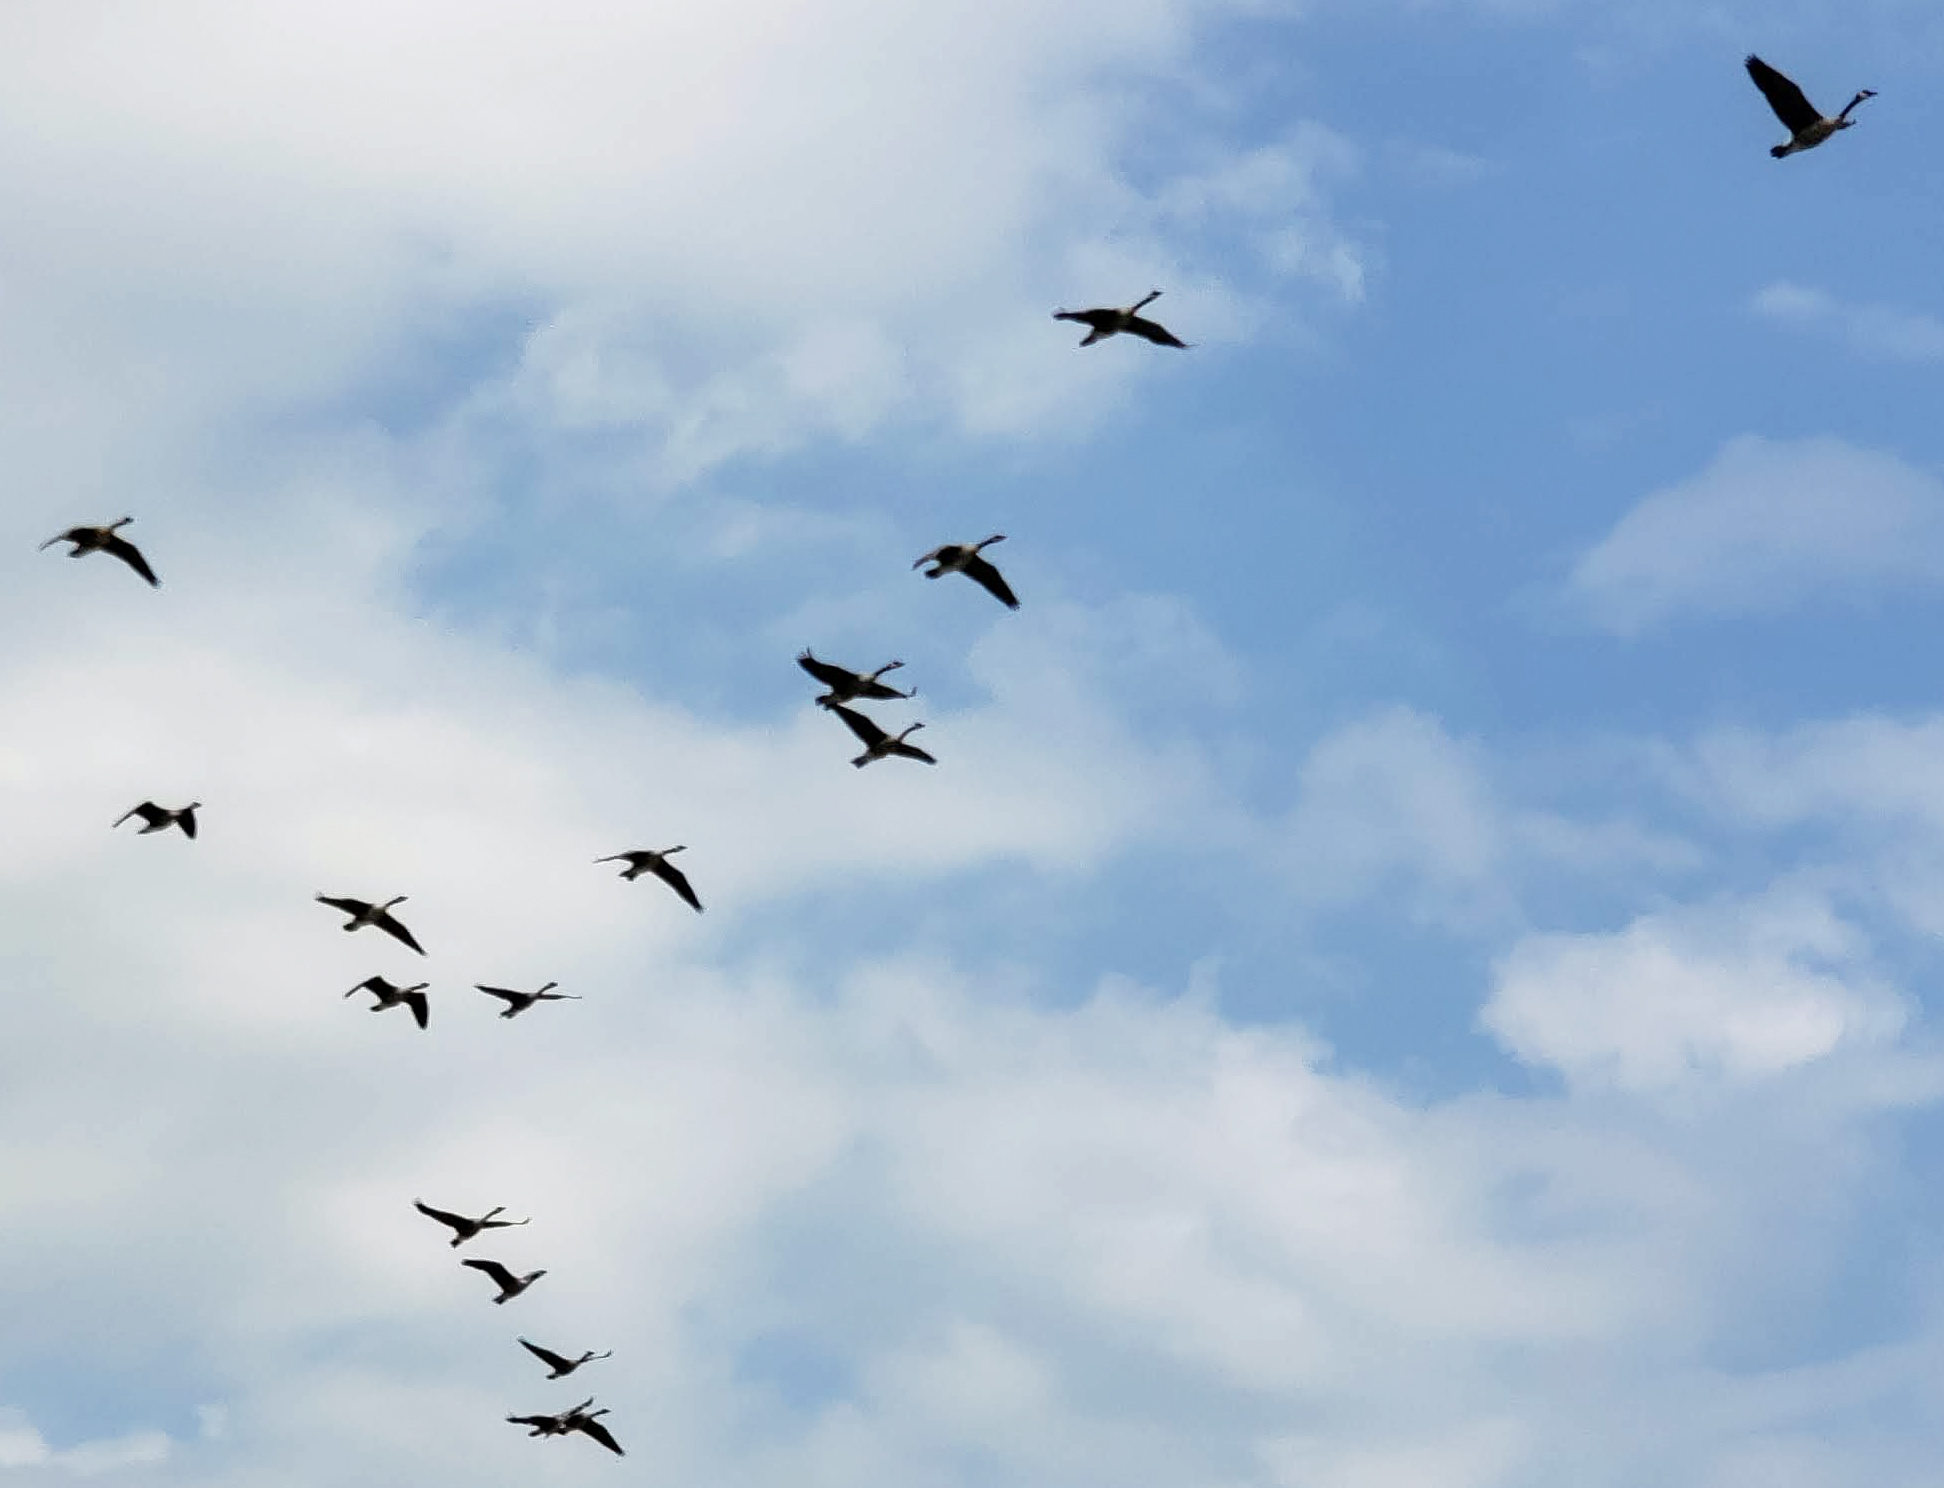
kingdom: Animalia
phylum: Chordata
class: Aves
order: Anseriformes
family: Anatidae
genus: Branta
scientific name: Branta canadensis
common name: Canada goose
